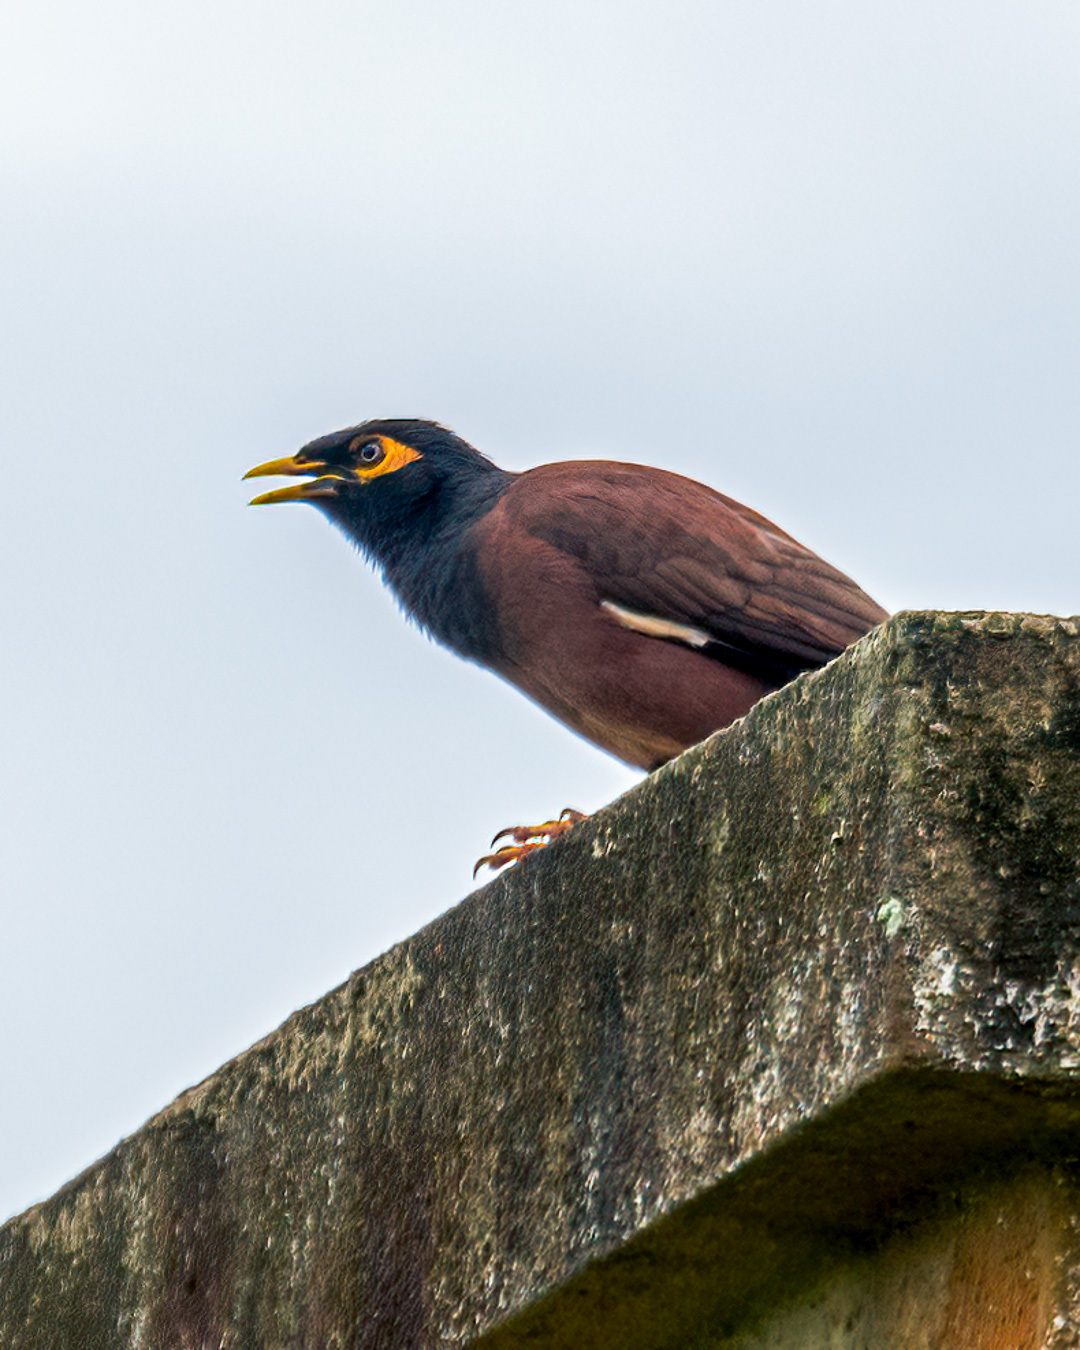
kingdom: Animalia
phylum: Chordata
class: Aves
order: Passeriformes
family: Sturnidae
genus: Acridotheres
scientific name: Acridotheres tristis
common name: Common myna
